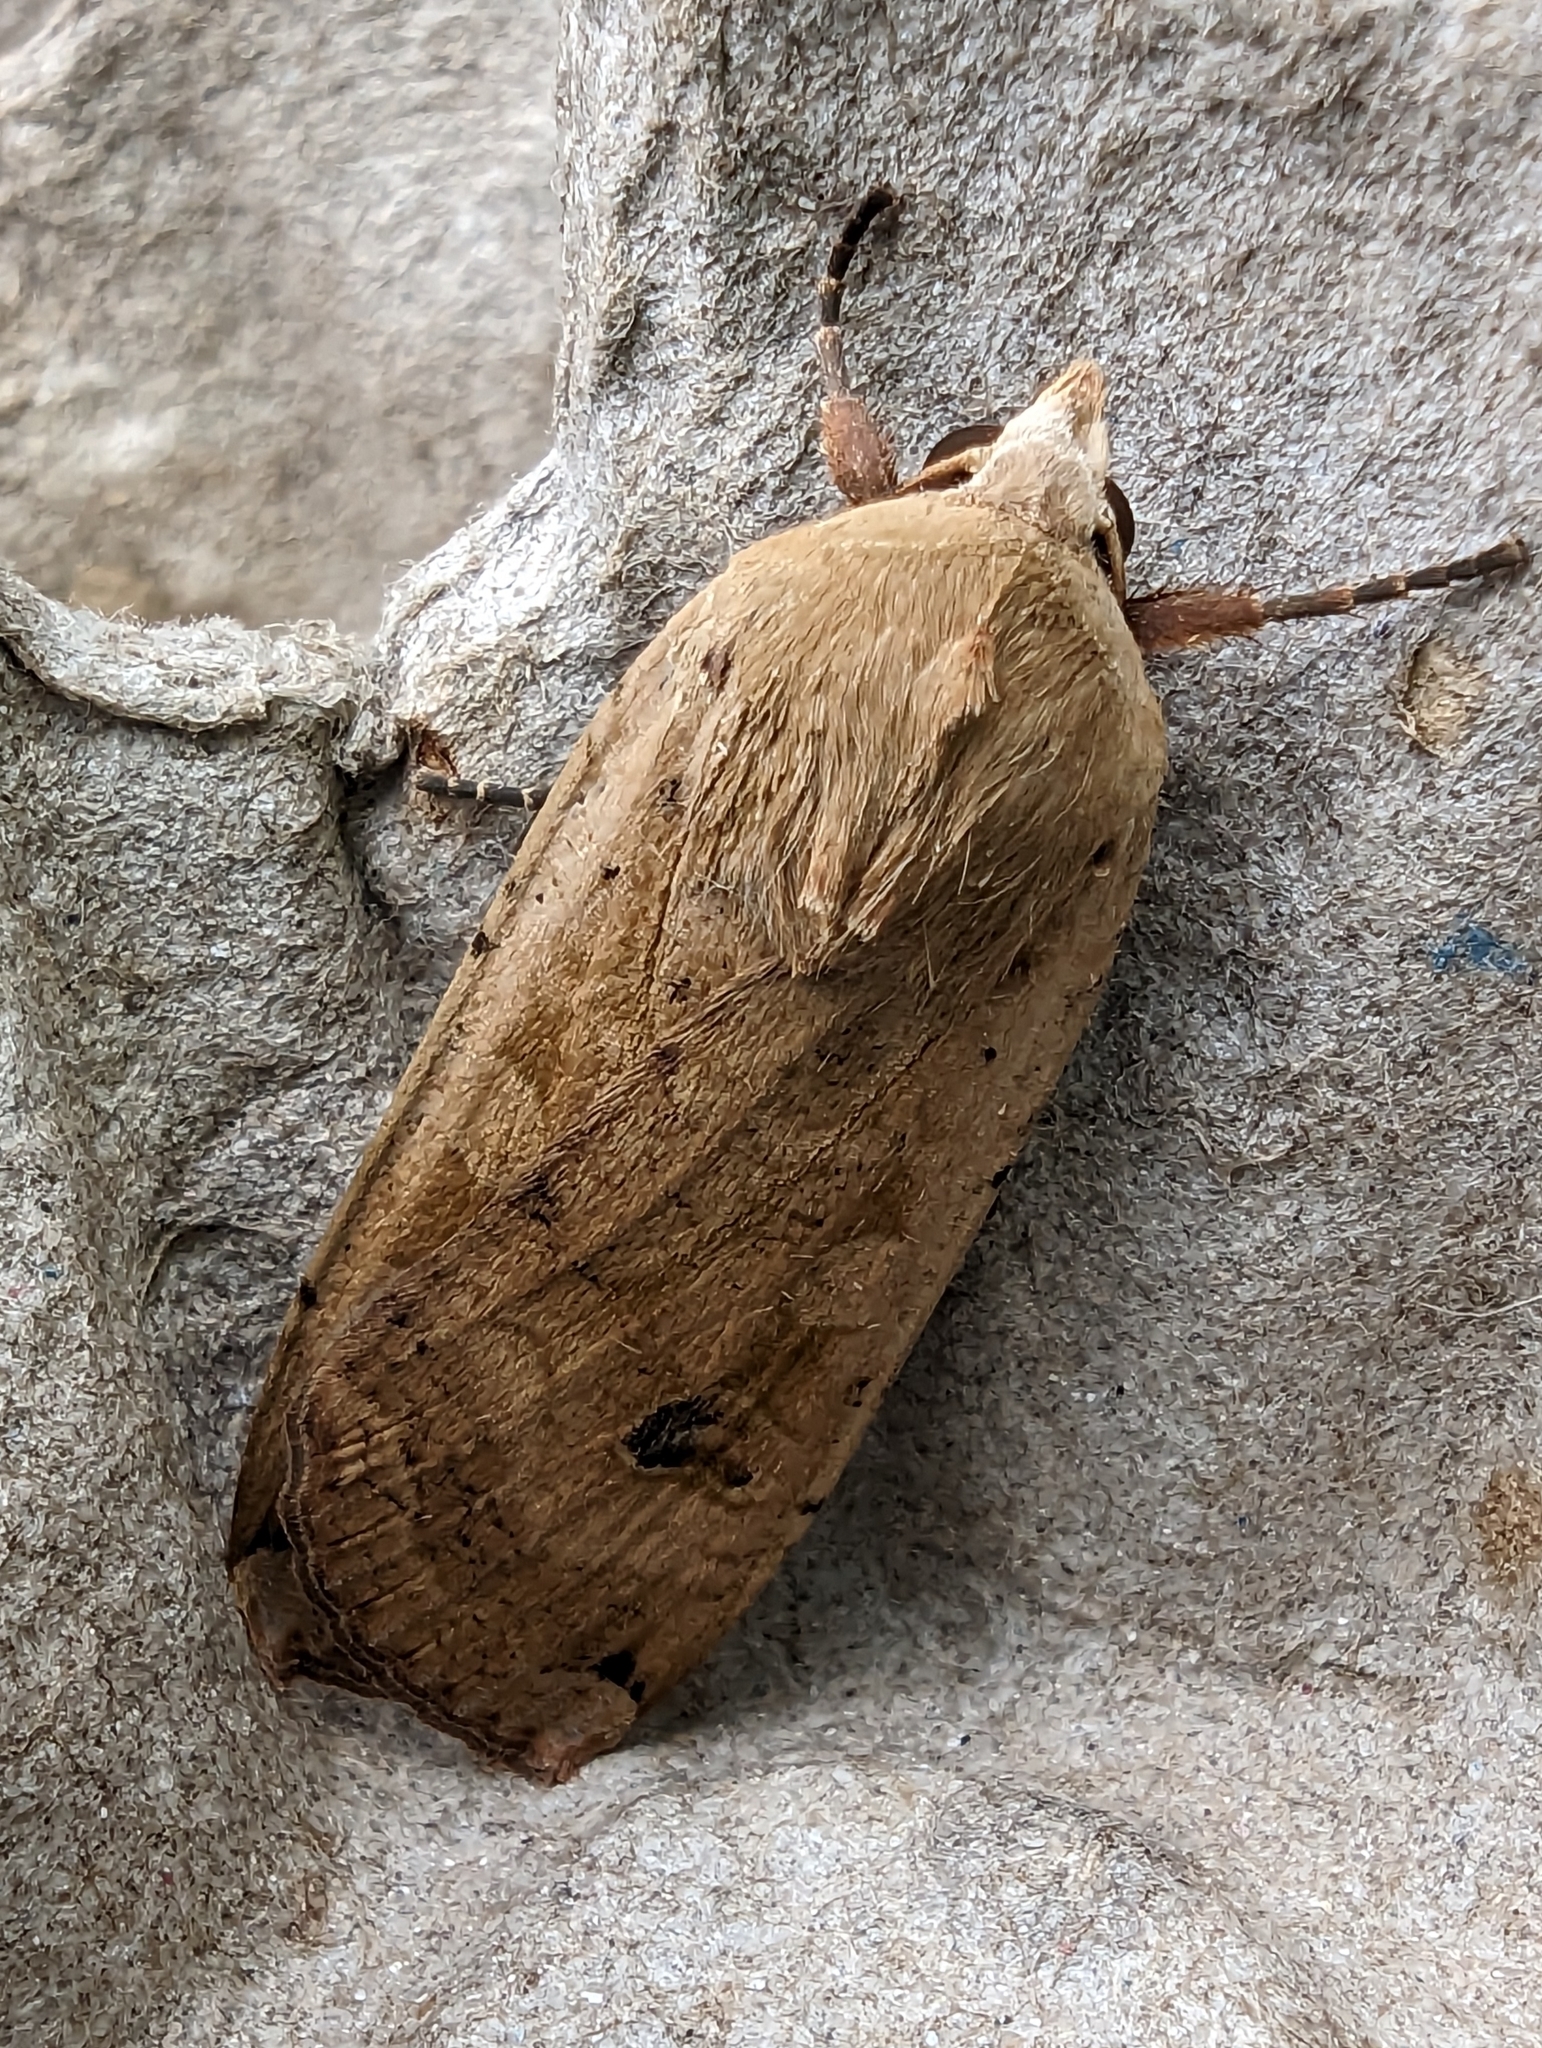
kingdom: Animalia
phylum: Arthropoda
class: Insecta
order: Lepidoptera
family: Noctuidae
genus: Noctua
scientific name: Noctua pronuba
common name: Large yellow underwing
